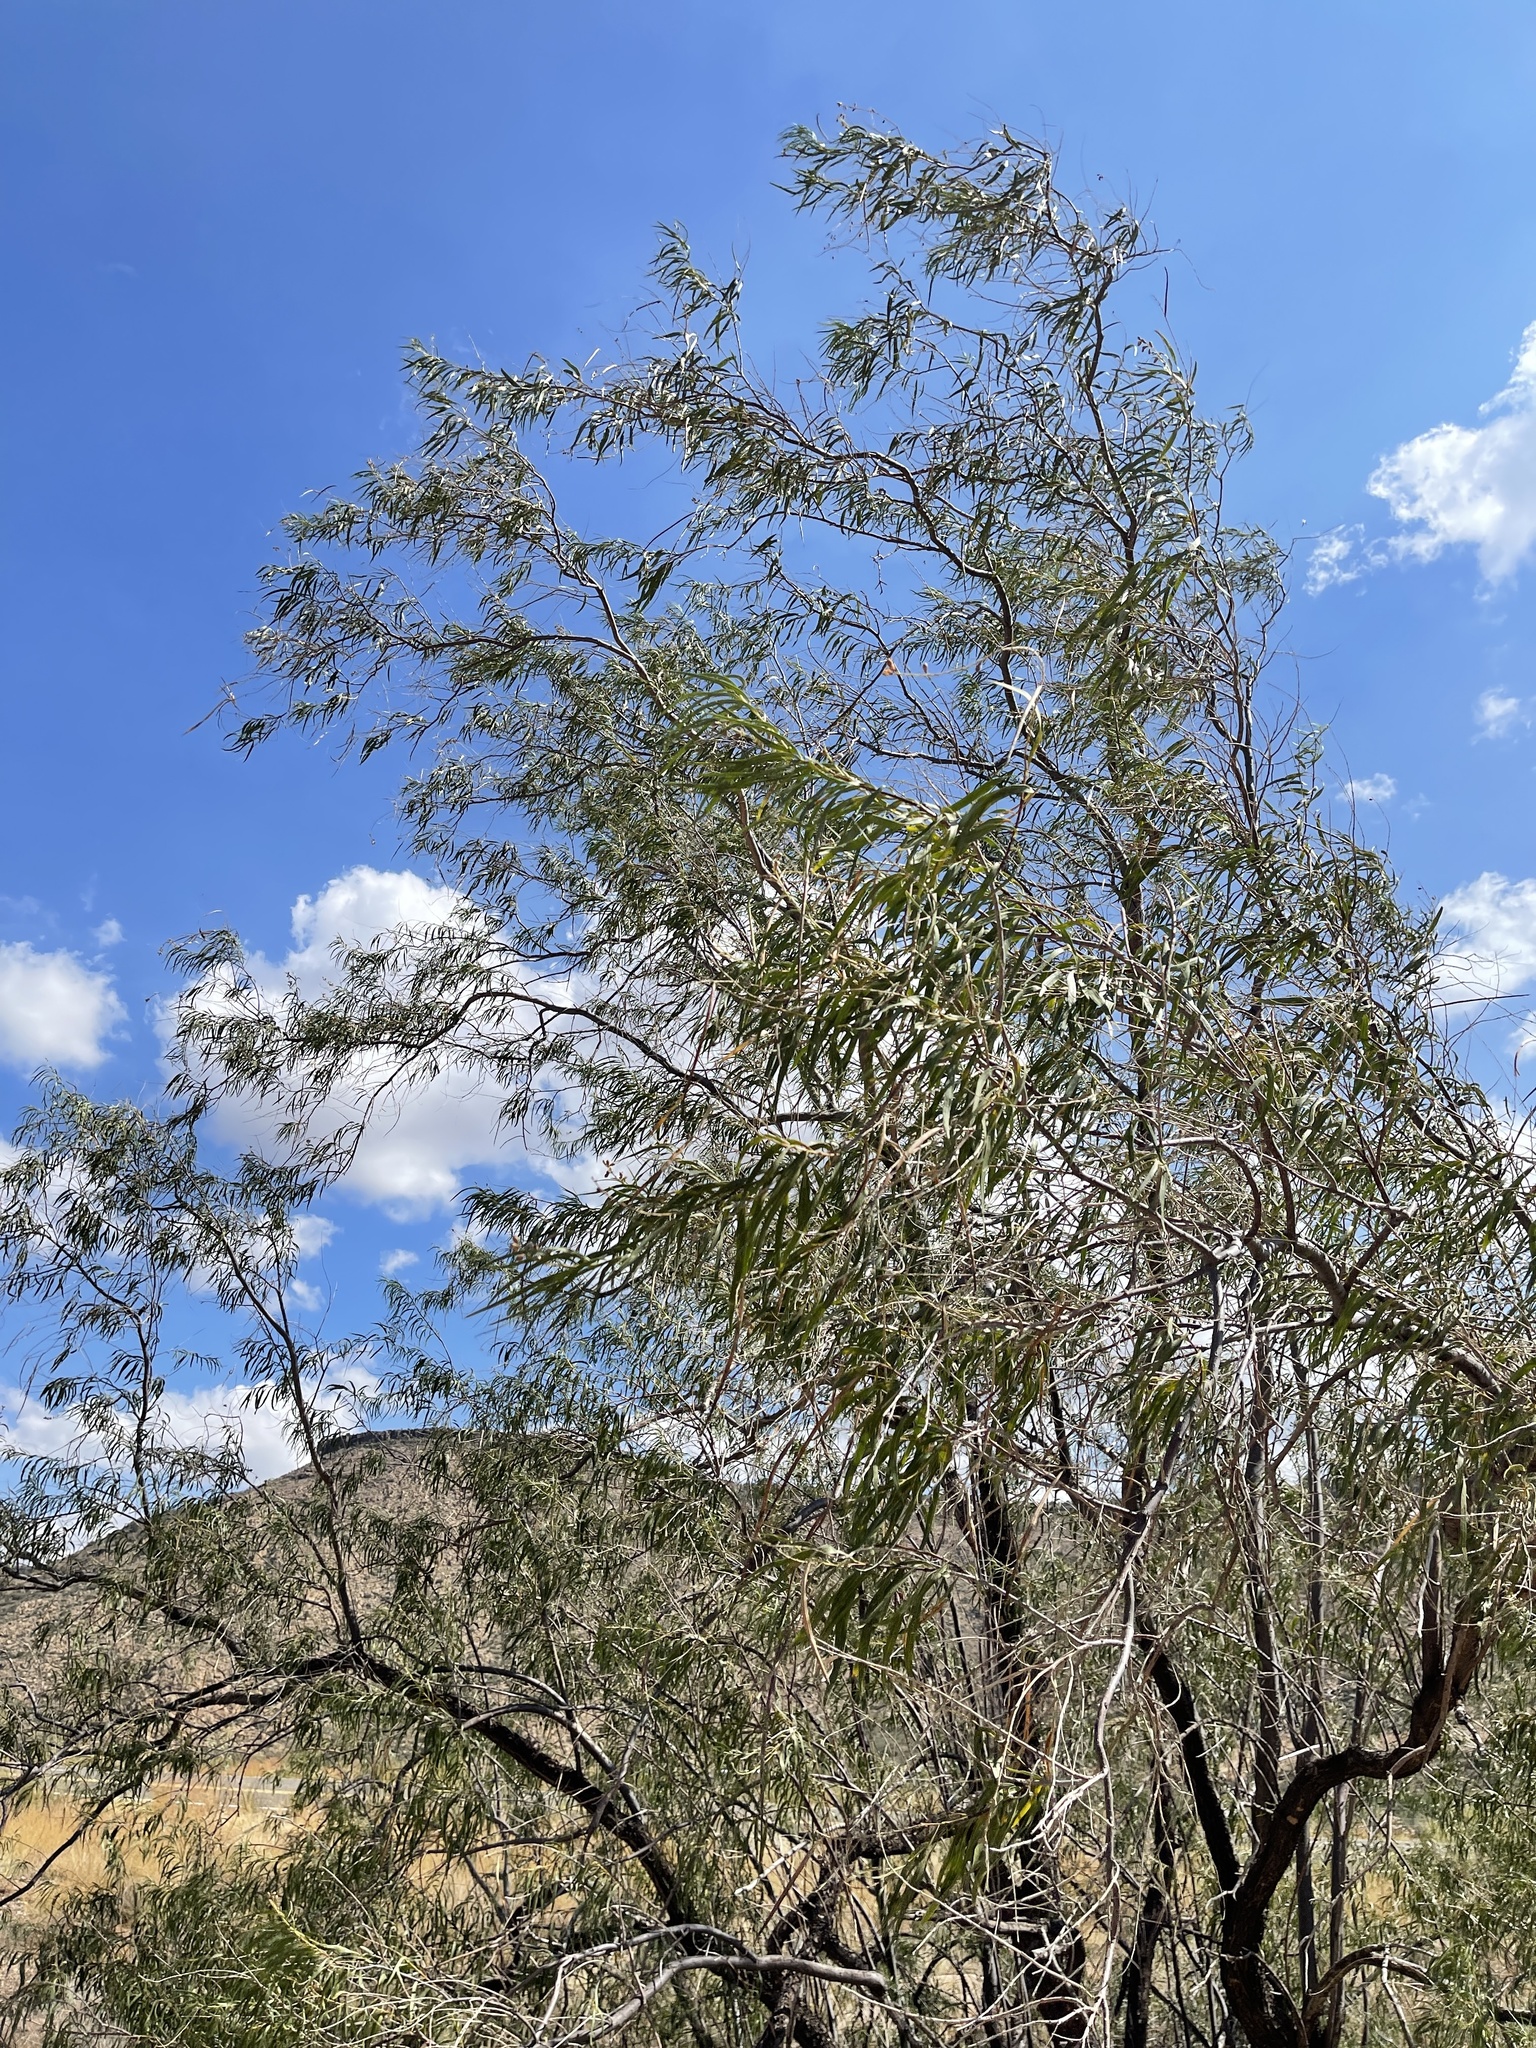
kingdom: Plantae
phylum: Tracheophyta
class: Magnoliopsida
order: Lamiales
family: Bignoniaceae
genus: Chilopsis
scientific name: Chilopsis linearis
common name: Desert-willow
